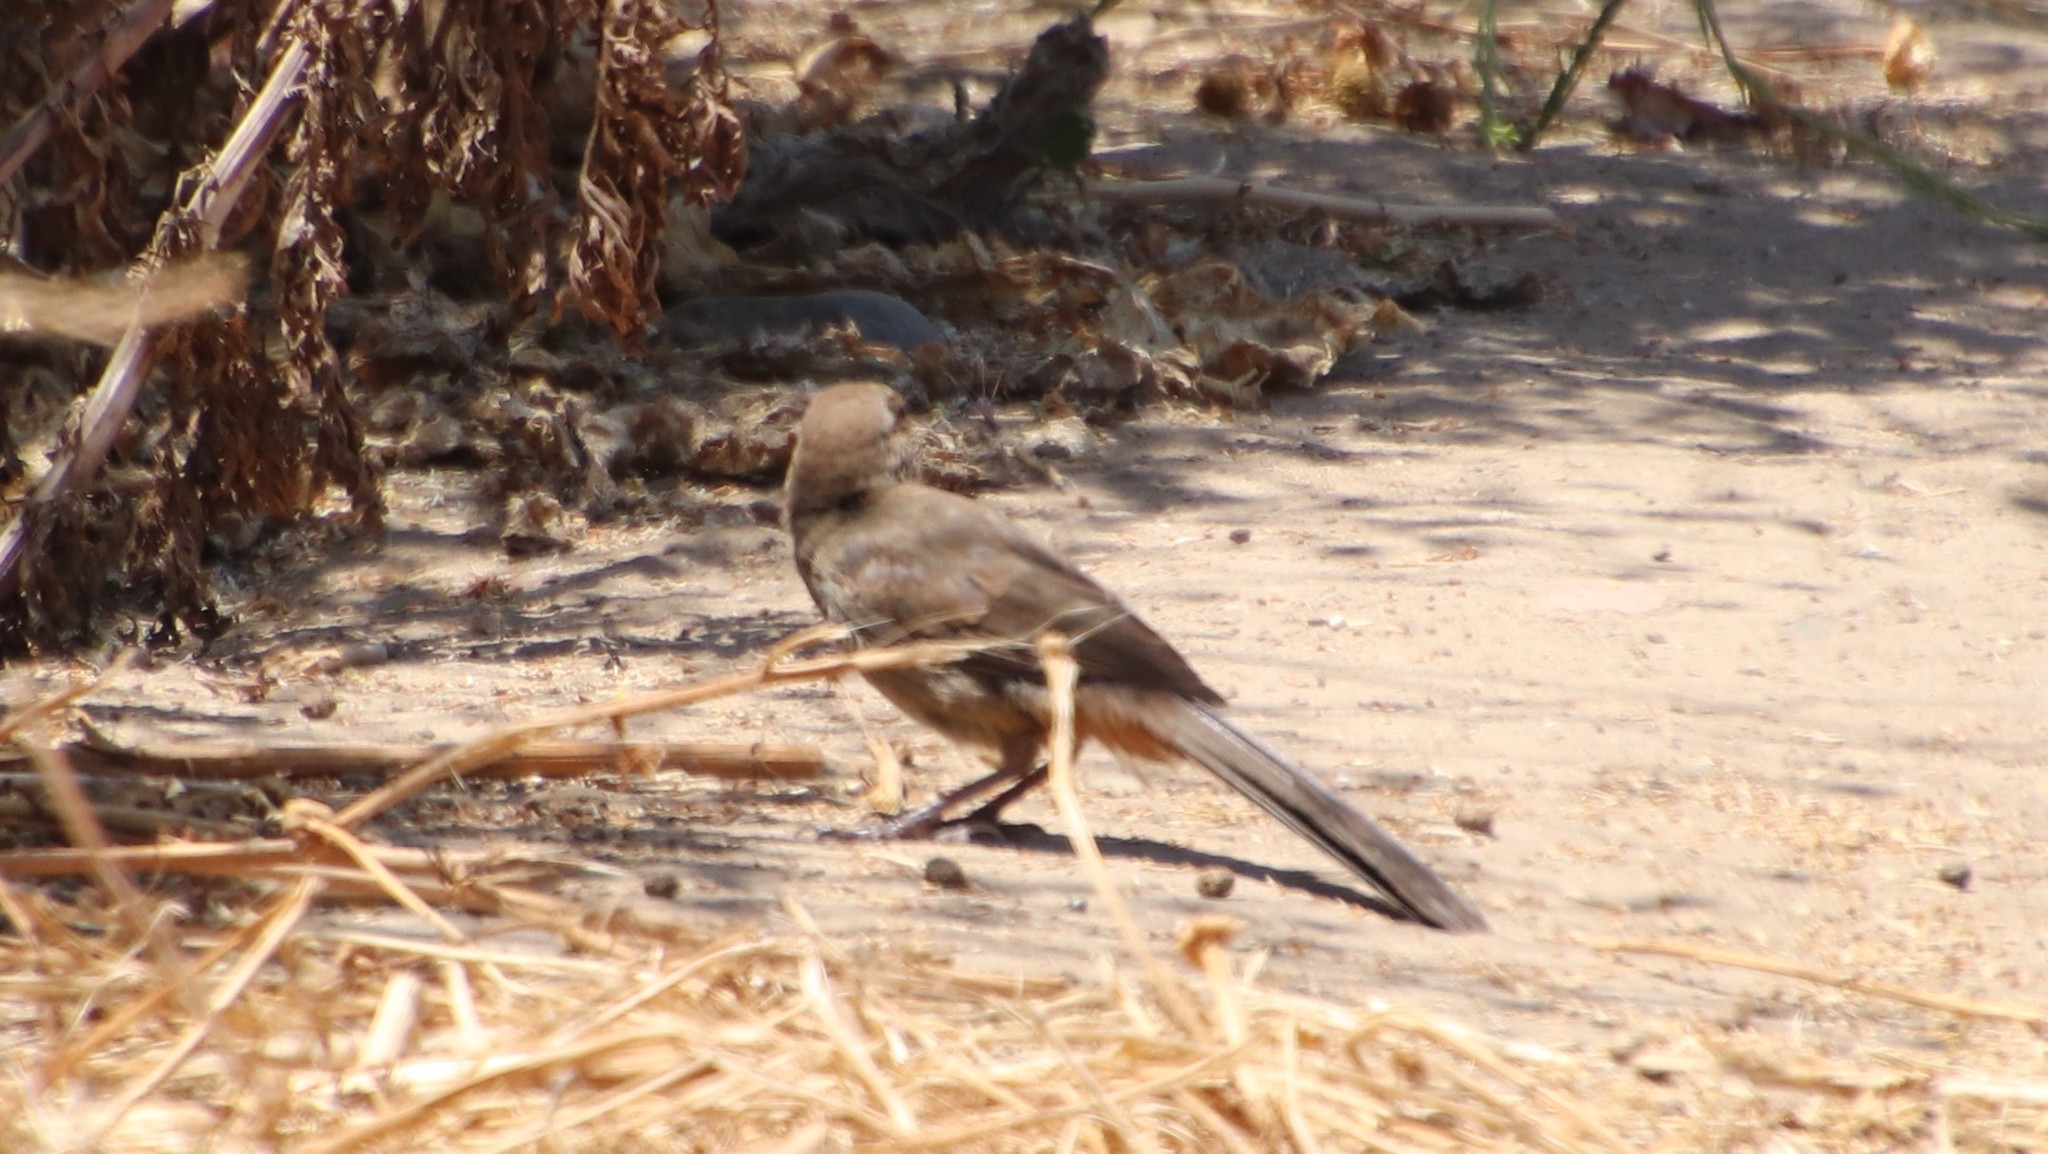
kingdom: Animalia
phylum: Chordata
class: Aves
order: Passeriformes
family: Passerellidae
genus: Melozone
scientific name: Melozone crissalis
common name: California towhee
